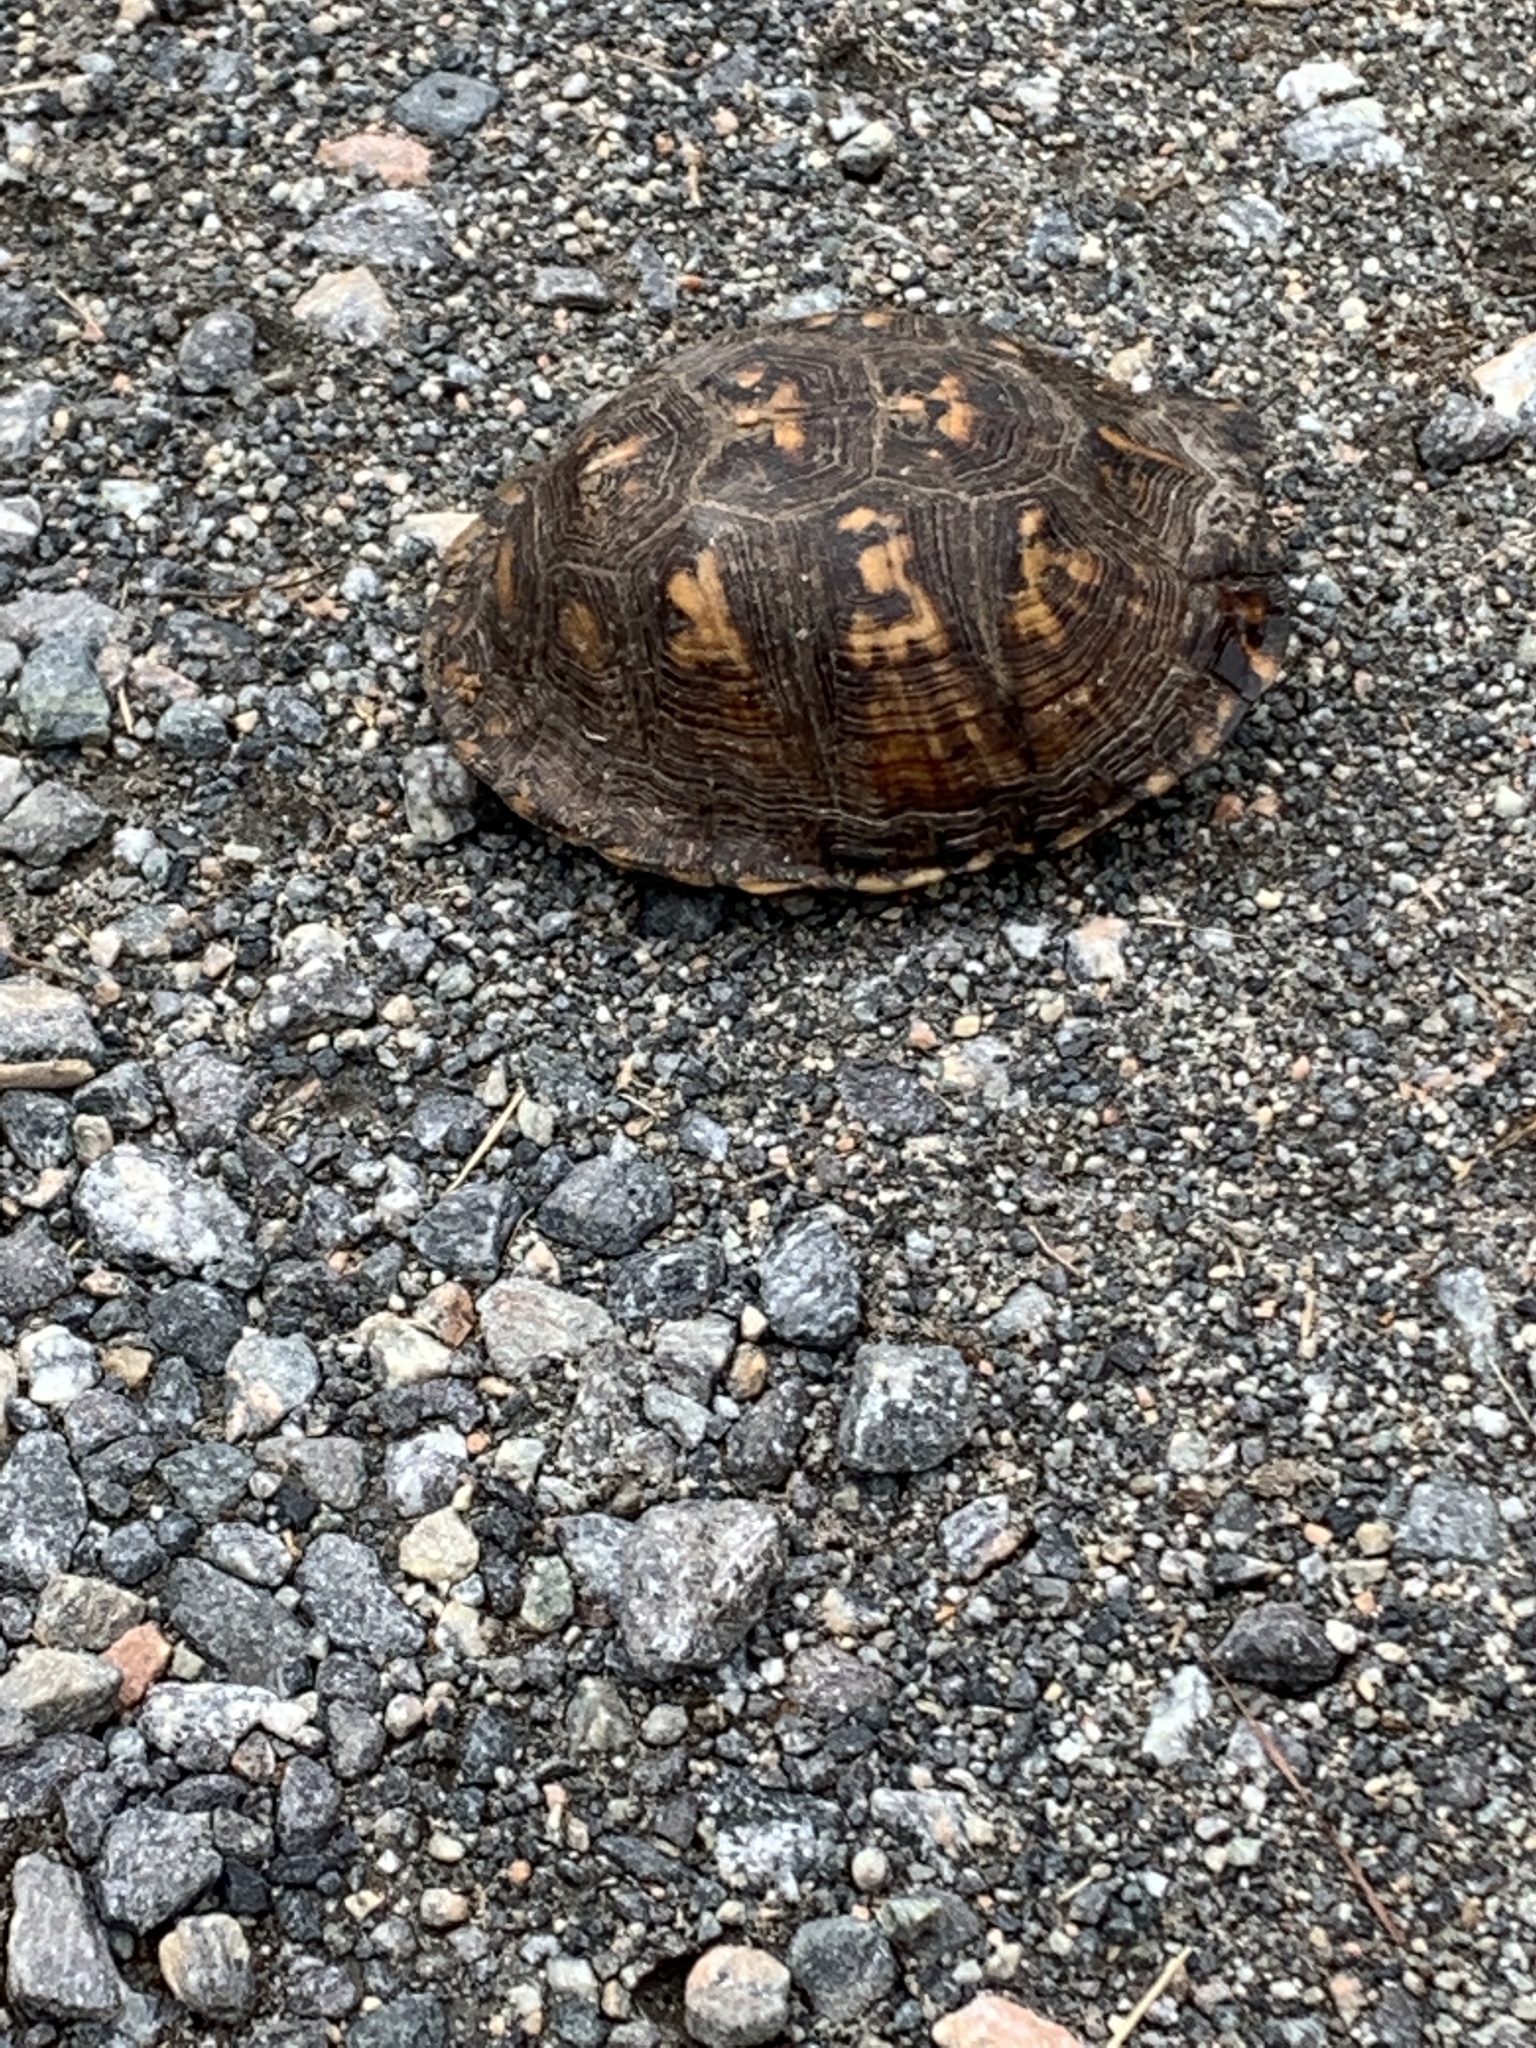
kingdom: Animalia
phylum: Chordata
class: Testudines
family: Emydidae
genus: Terrapene
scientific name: Terrapene carolina
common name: Common box turtle
